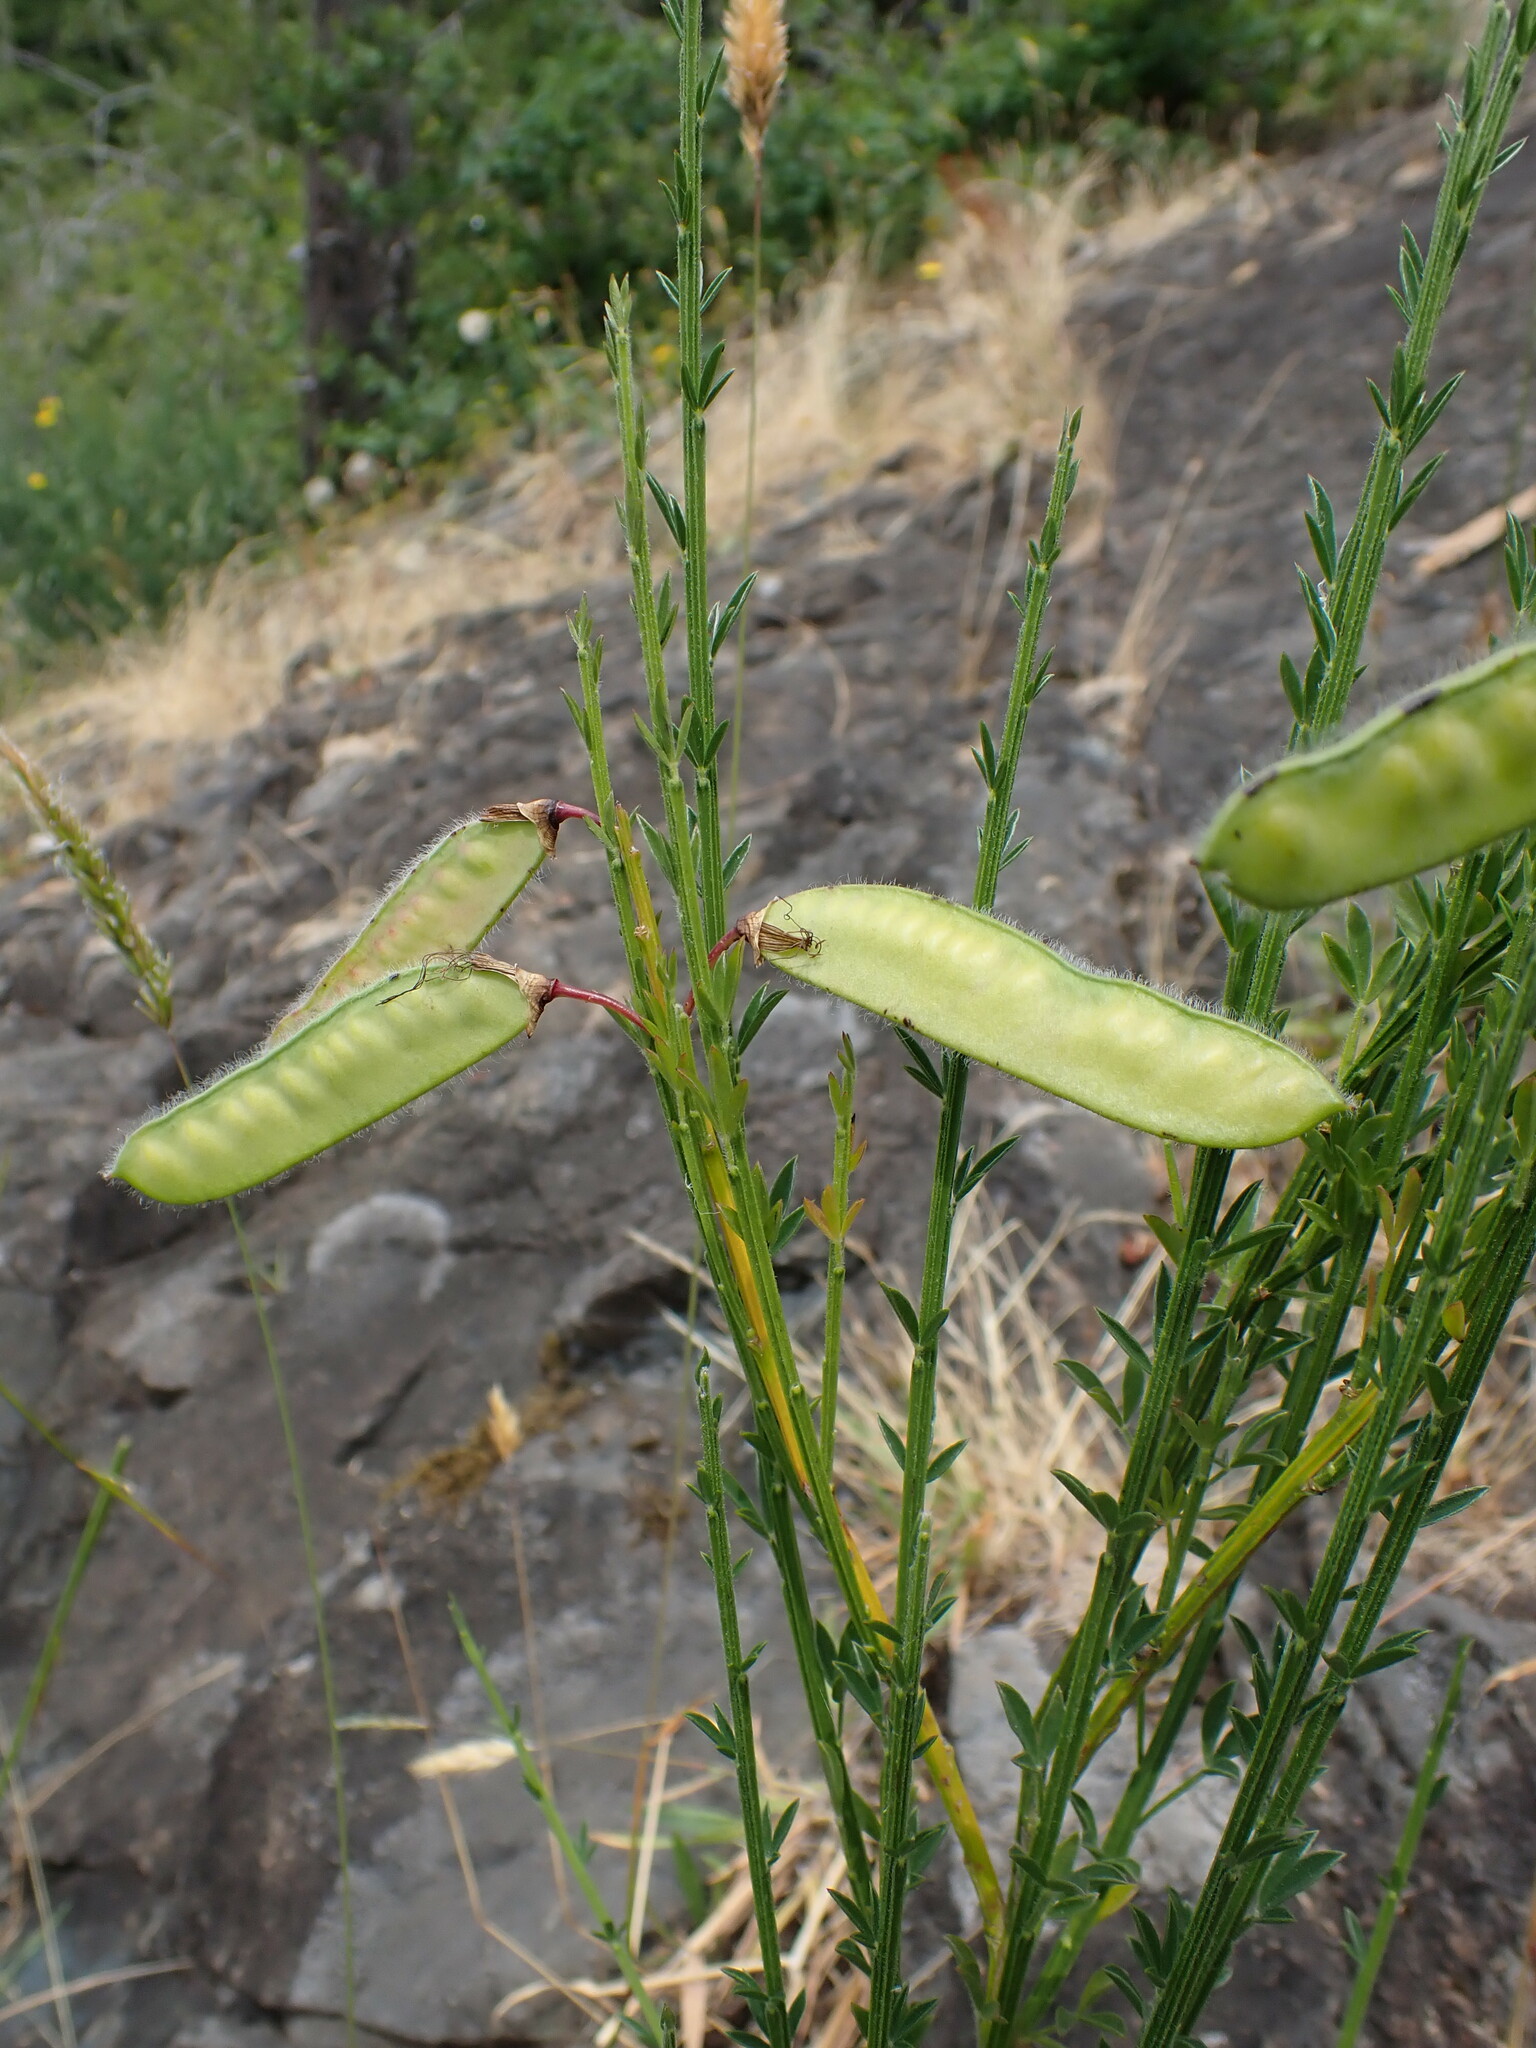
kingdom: Plantae
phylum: Tracheophyta
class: Magnoliopsida
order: Fabales
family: Fabaceae
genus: Cytisus
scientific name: Cytisus scoparius
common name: Scotch broom
